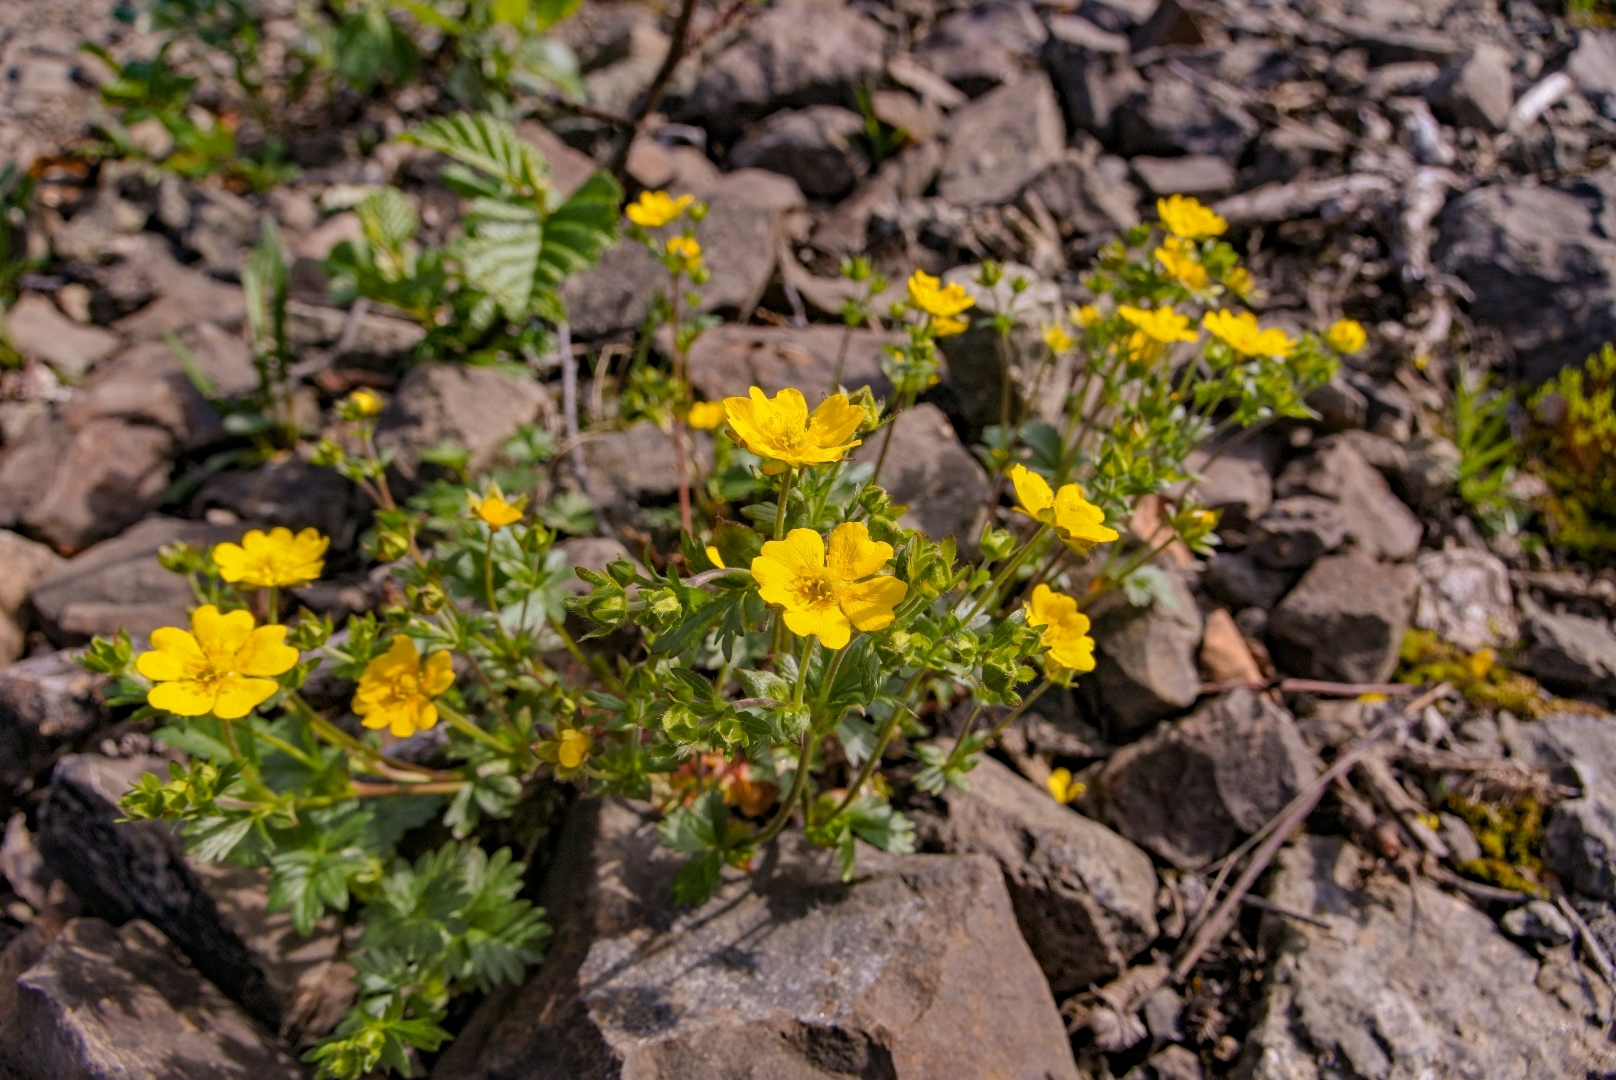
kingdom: Plantae
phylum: Tracheophyta
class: Magnoliopsida
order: Rosales
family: Rosaceae
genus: Potentilla
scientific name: Potentilla prostrata
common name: Prostrate cinquefoil
